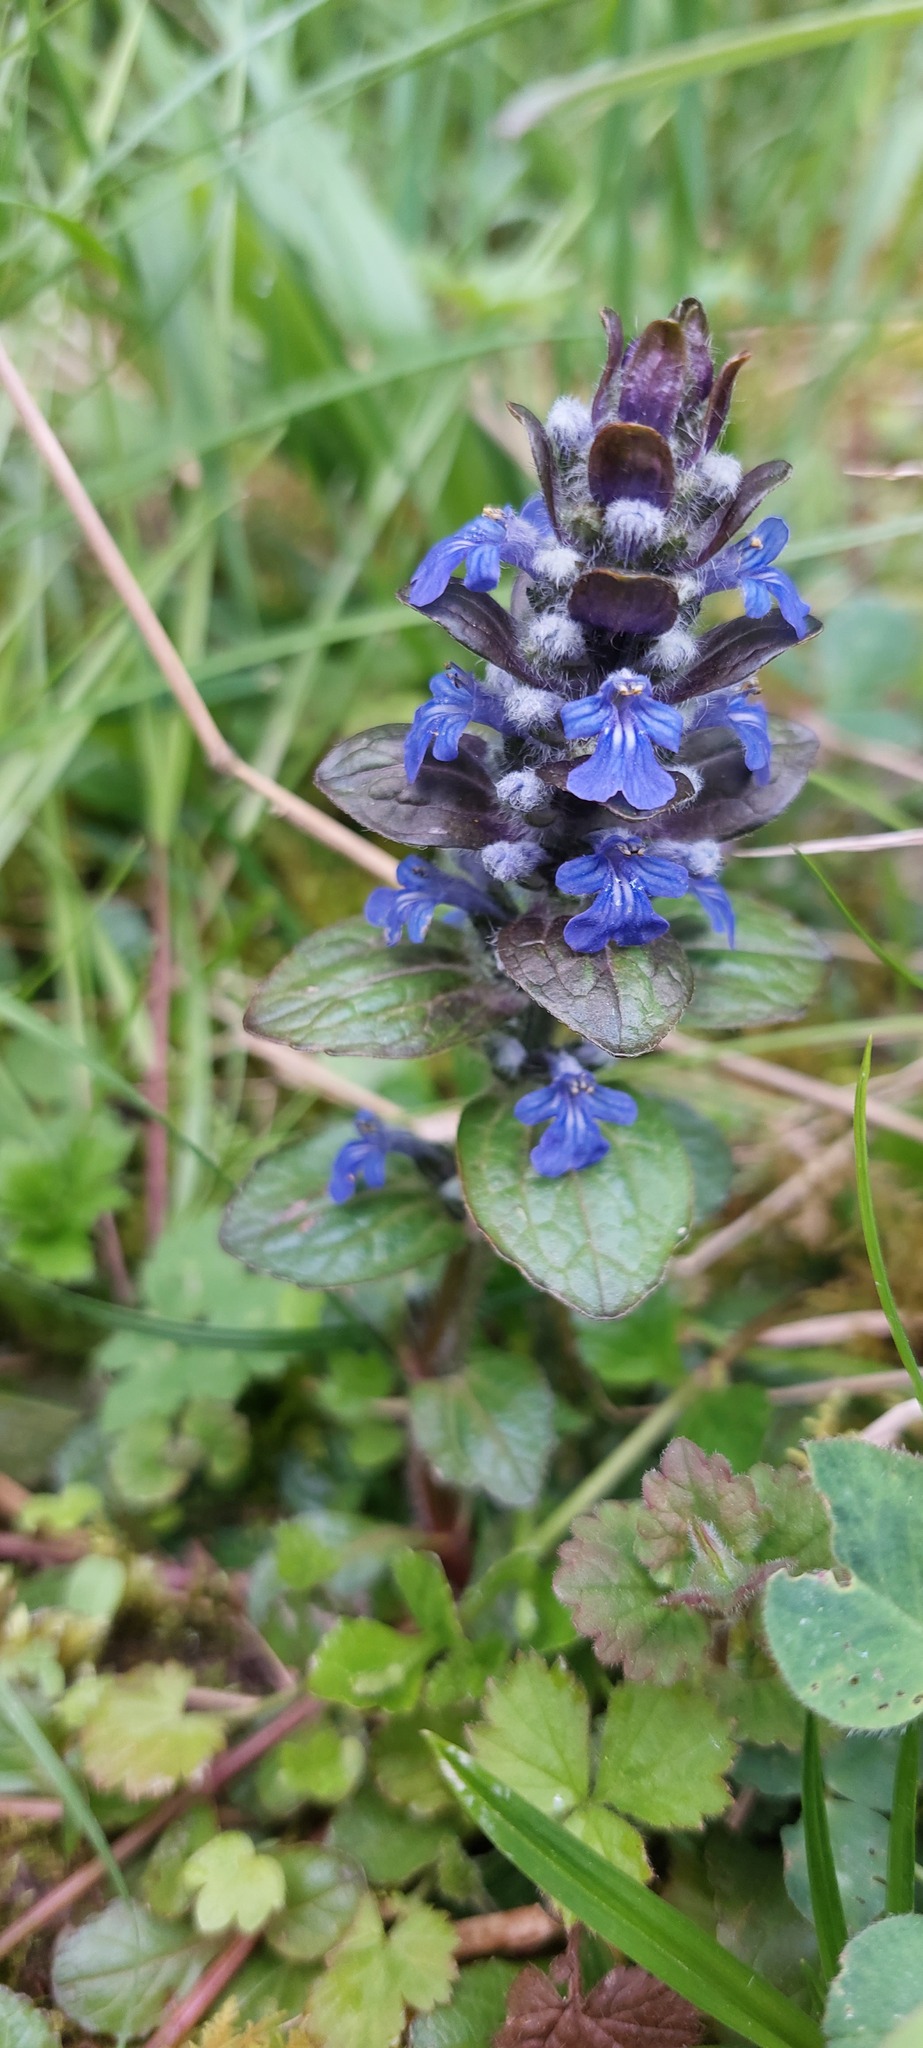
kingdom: Plantae
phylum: Tracheophyta
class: Magnoliopsida
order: Lamiales
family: Lamiaceae
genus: Ajuga
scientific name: Ajuga reptans
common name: Bugle
